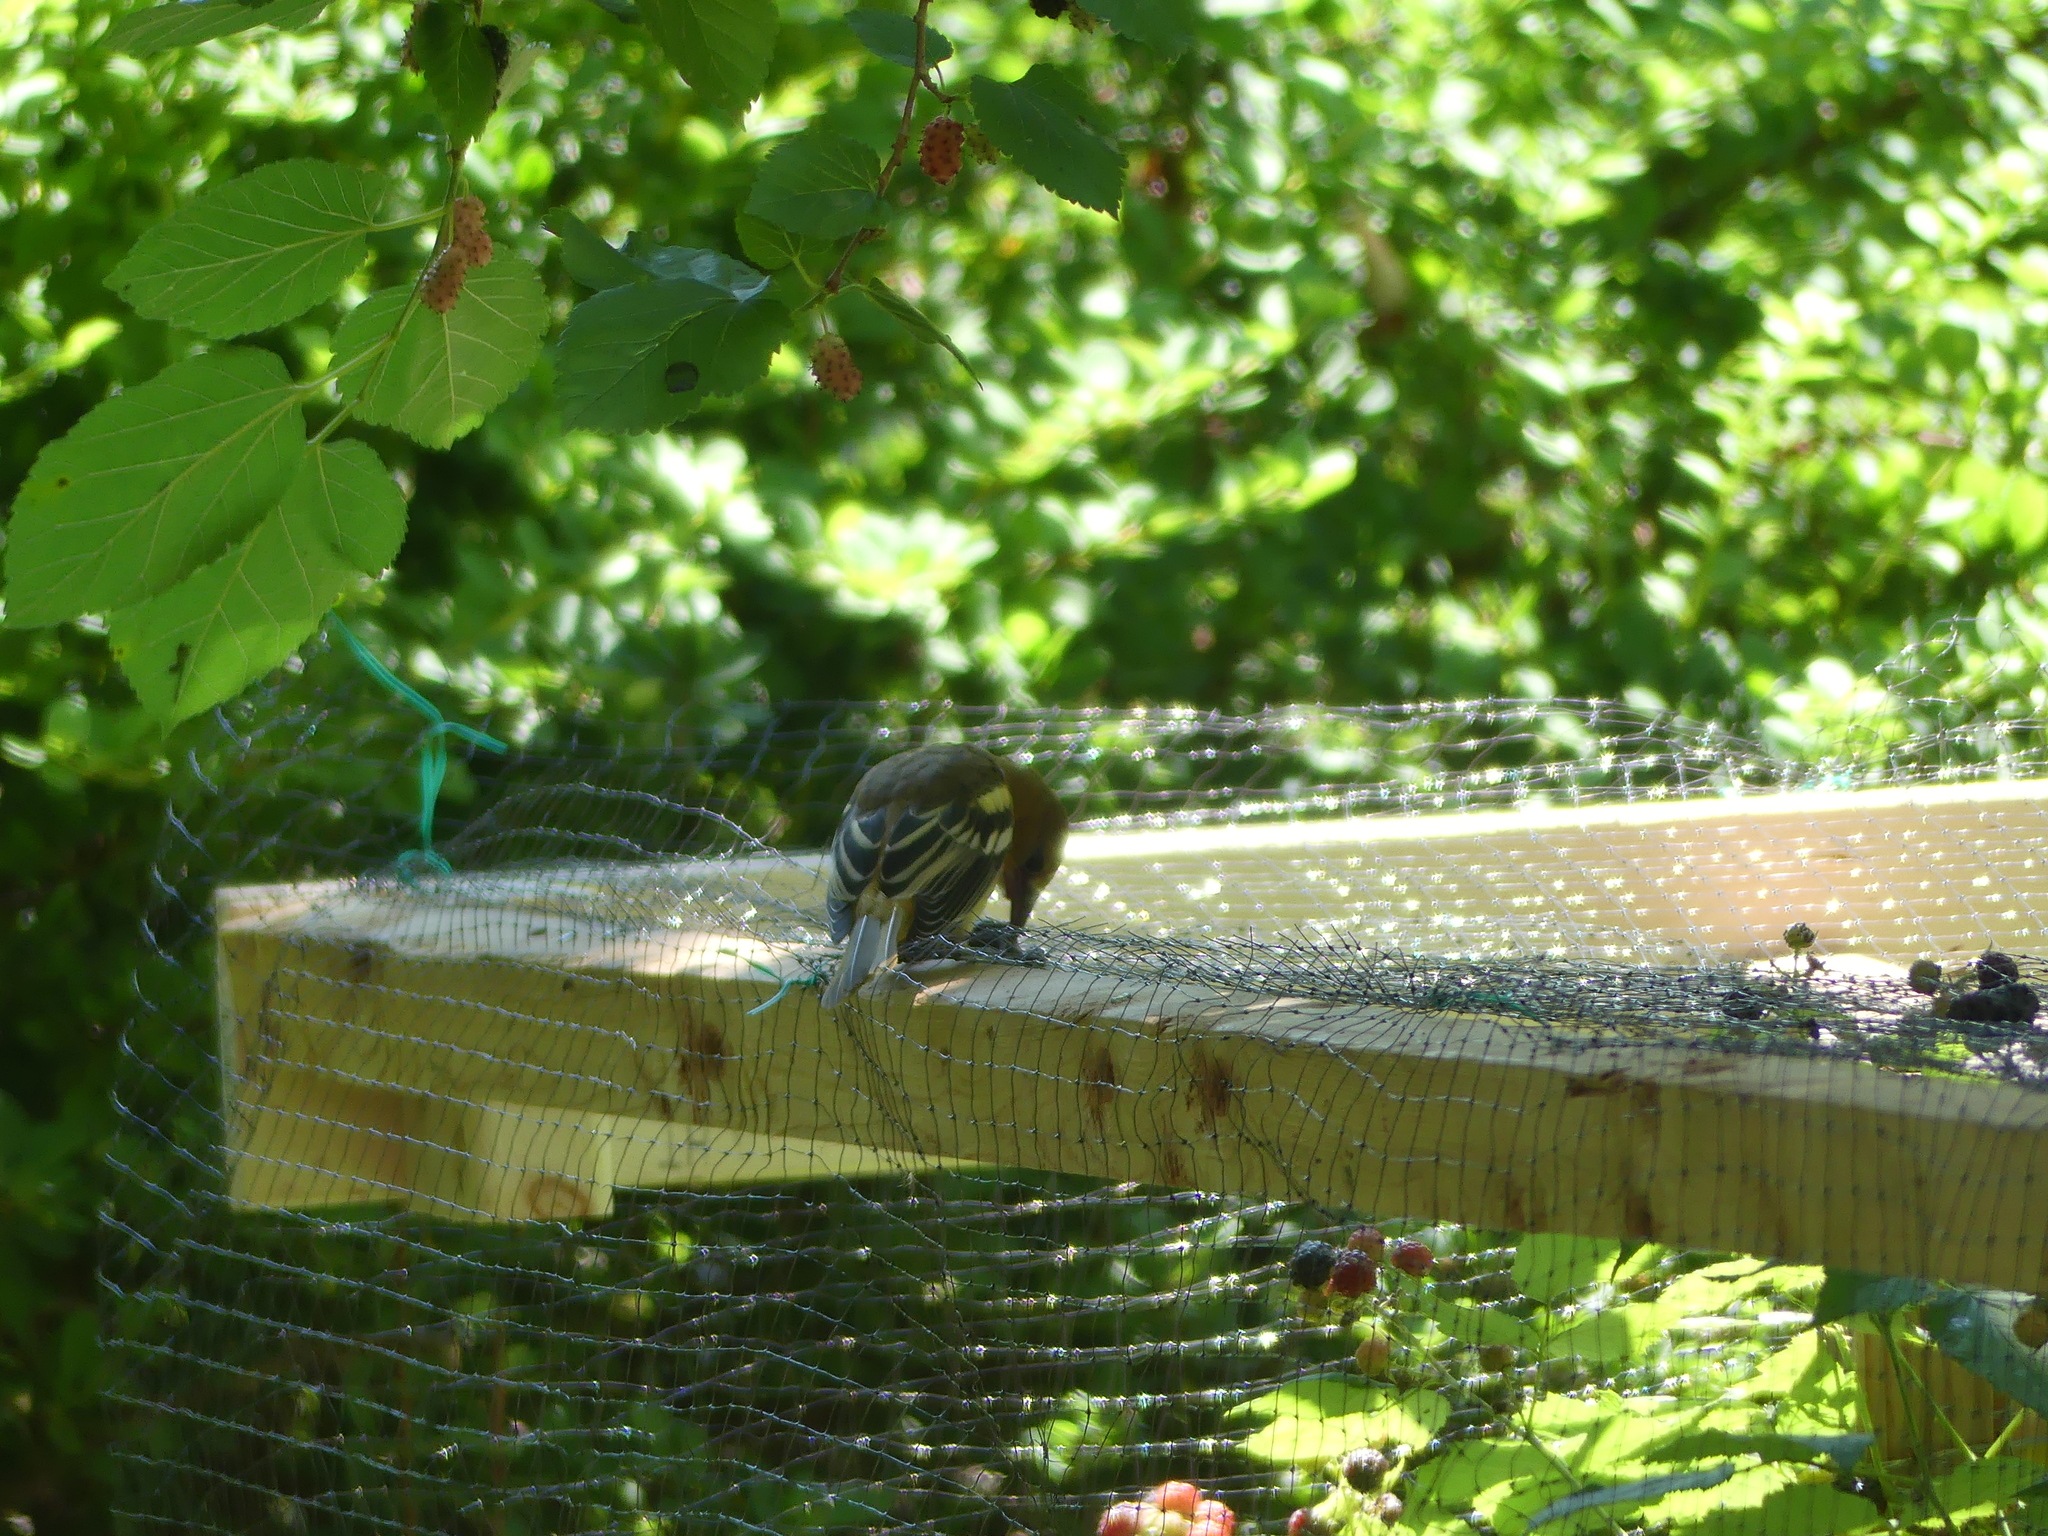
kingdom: Animalia
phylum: Chordata
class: Aves
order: Passeriformes
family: Icteridae
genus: Icterus
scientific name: Icterus galbula
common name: Baltimore oriole
